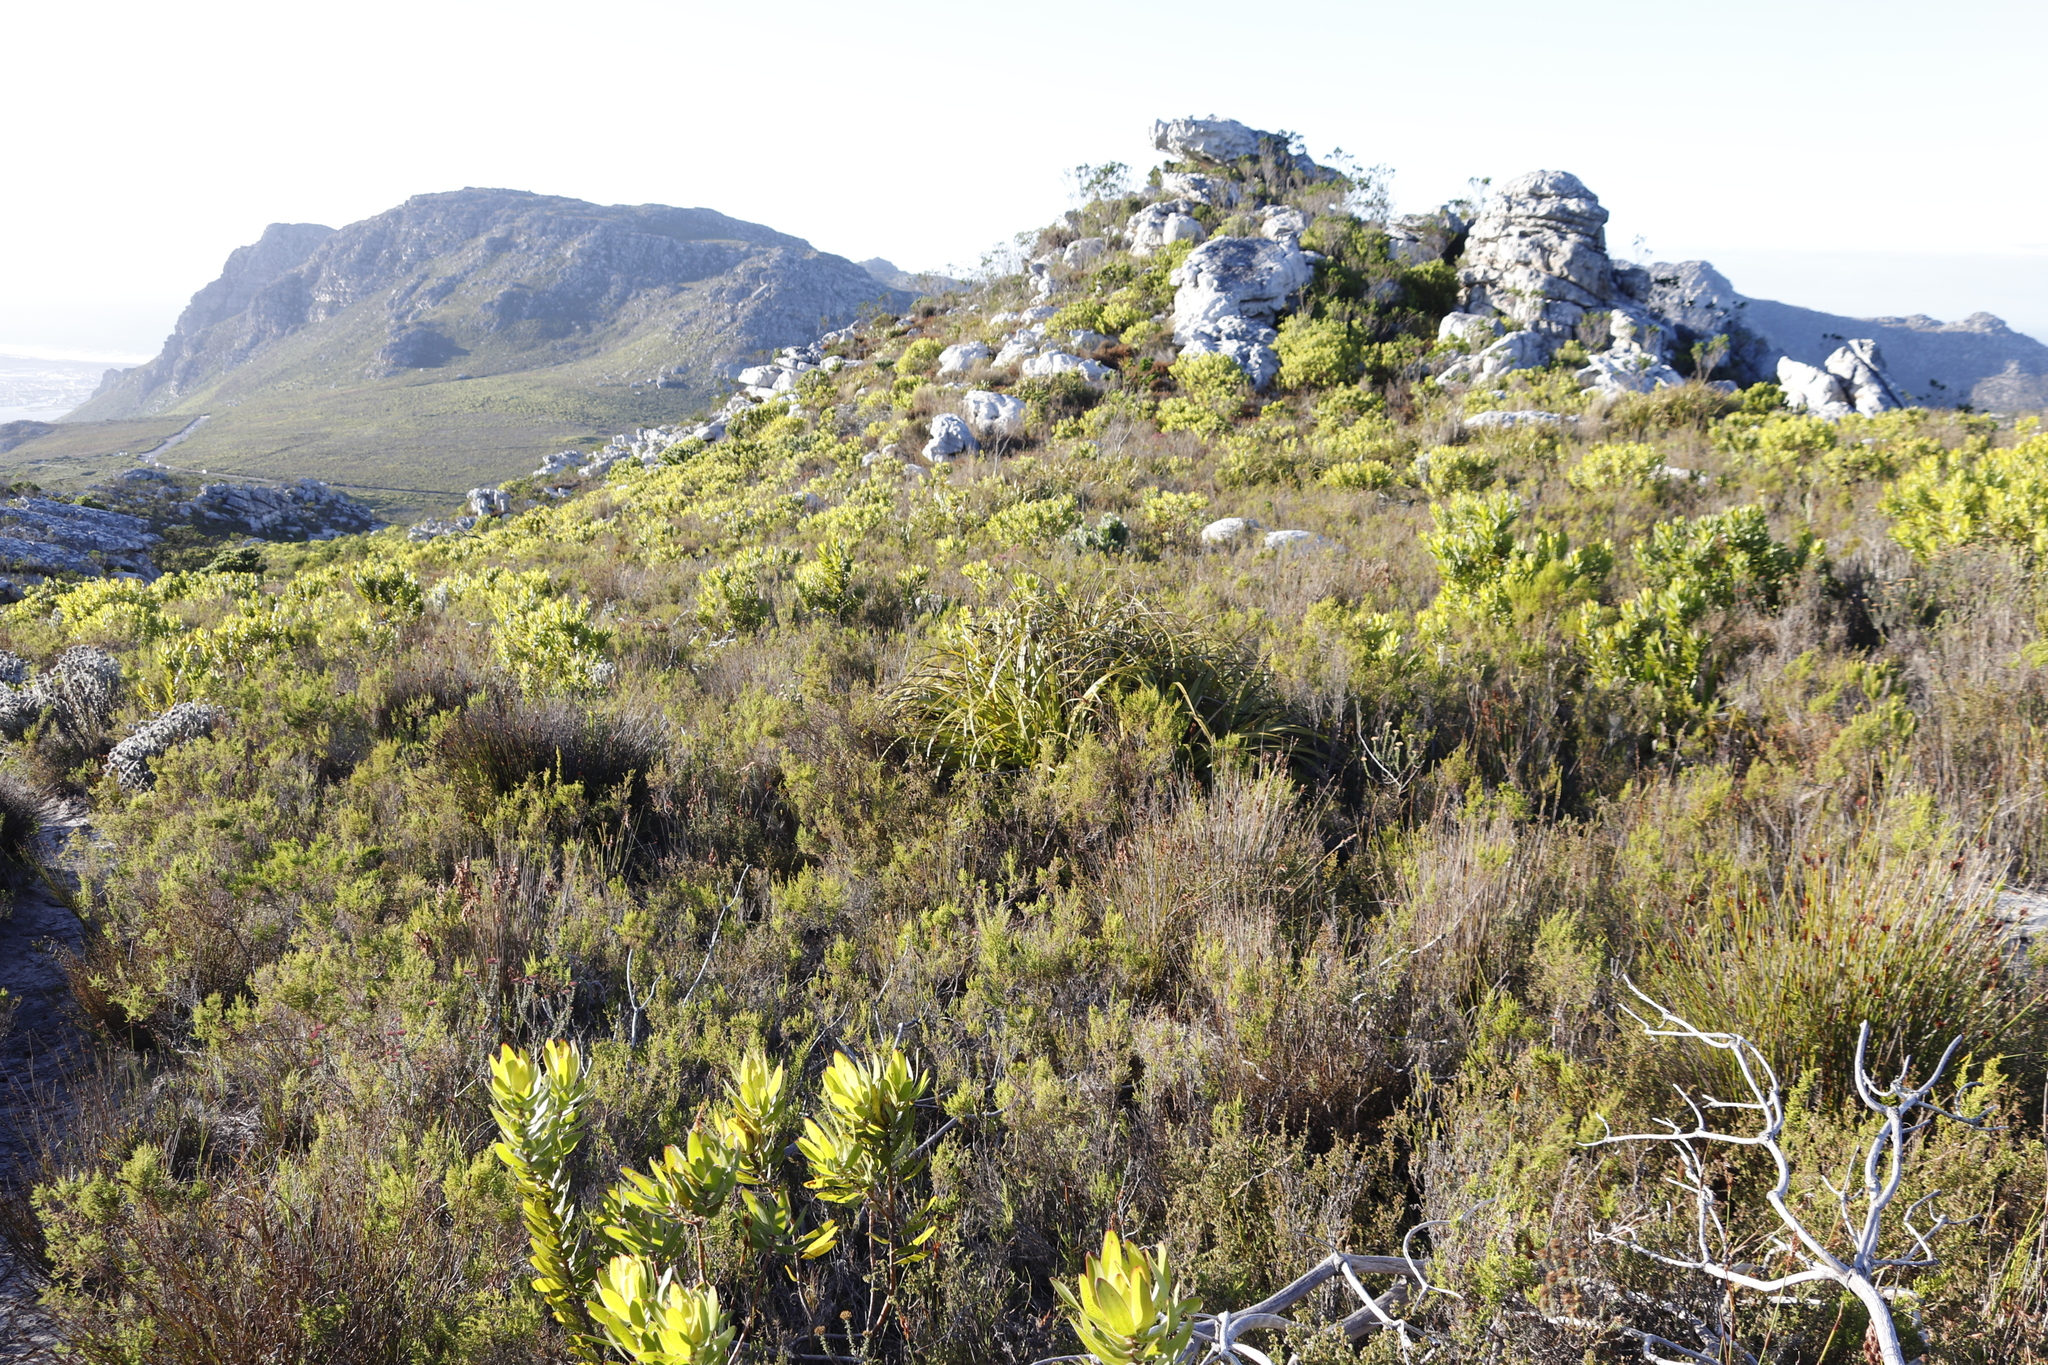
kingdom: Plantae
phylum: Tracheophyta
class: Liliopsida
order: Poales
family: Cyperaceae
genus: Tetraria
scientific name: Tetraria thermalis
